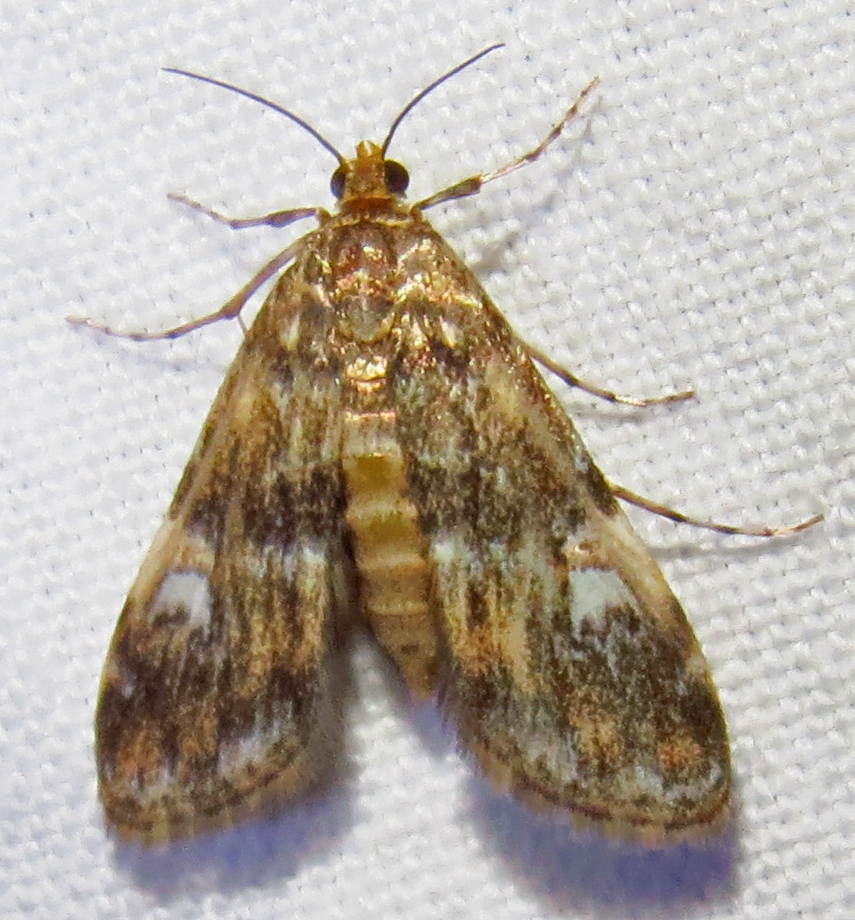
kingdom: Animalia
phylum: Arthropoda
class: Insecta
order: Lepidoptera
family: Crambidae
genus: Elophila
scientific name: Elophila obliteralis
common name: Waterlily leafcutter moth
